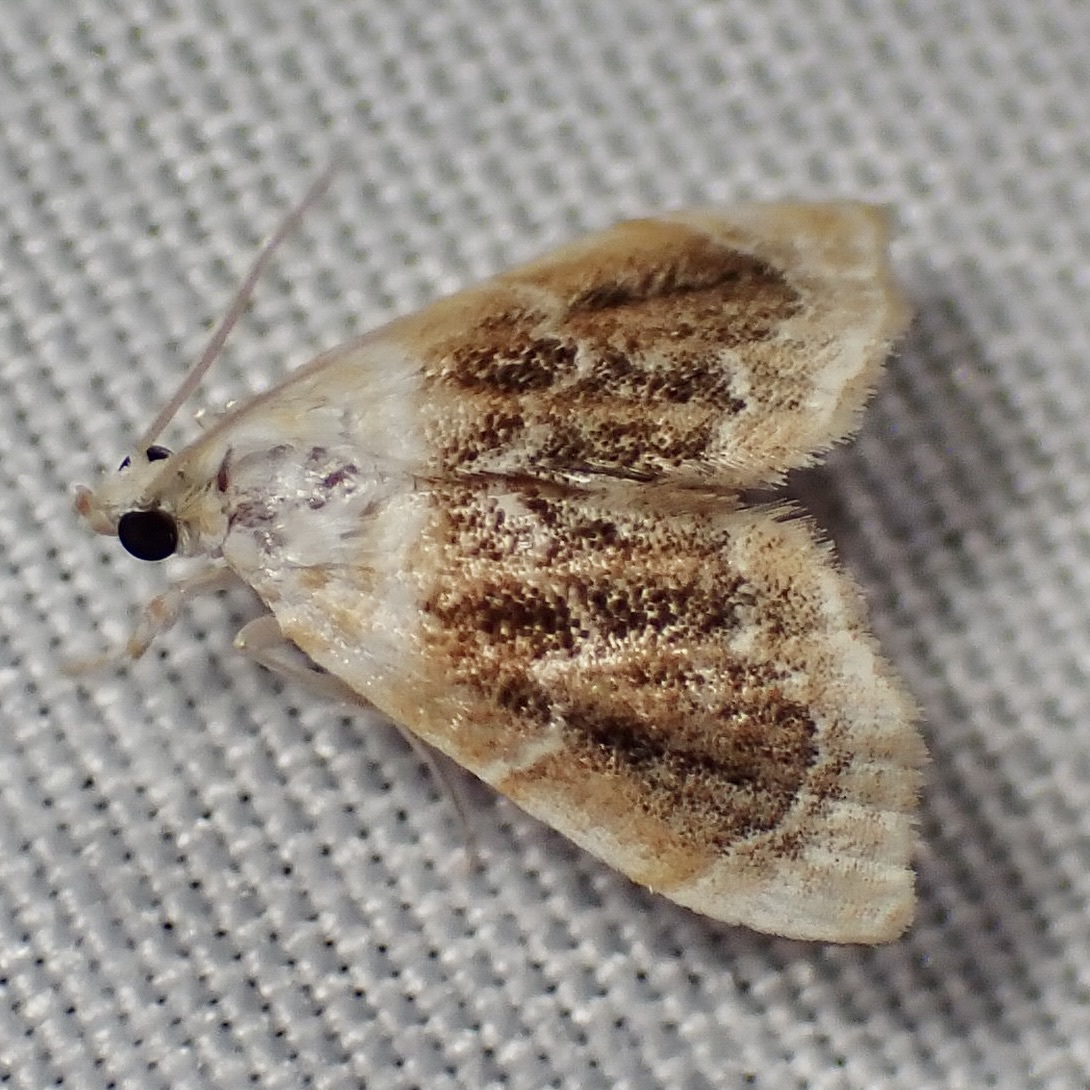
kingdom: Animalia
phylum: Arthropoda
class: Insecta
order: Lepidoptera
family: Crambidae
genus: Lipocosma
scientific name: Lipocosma polingi
